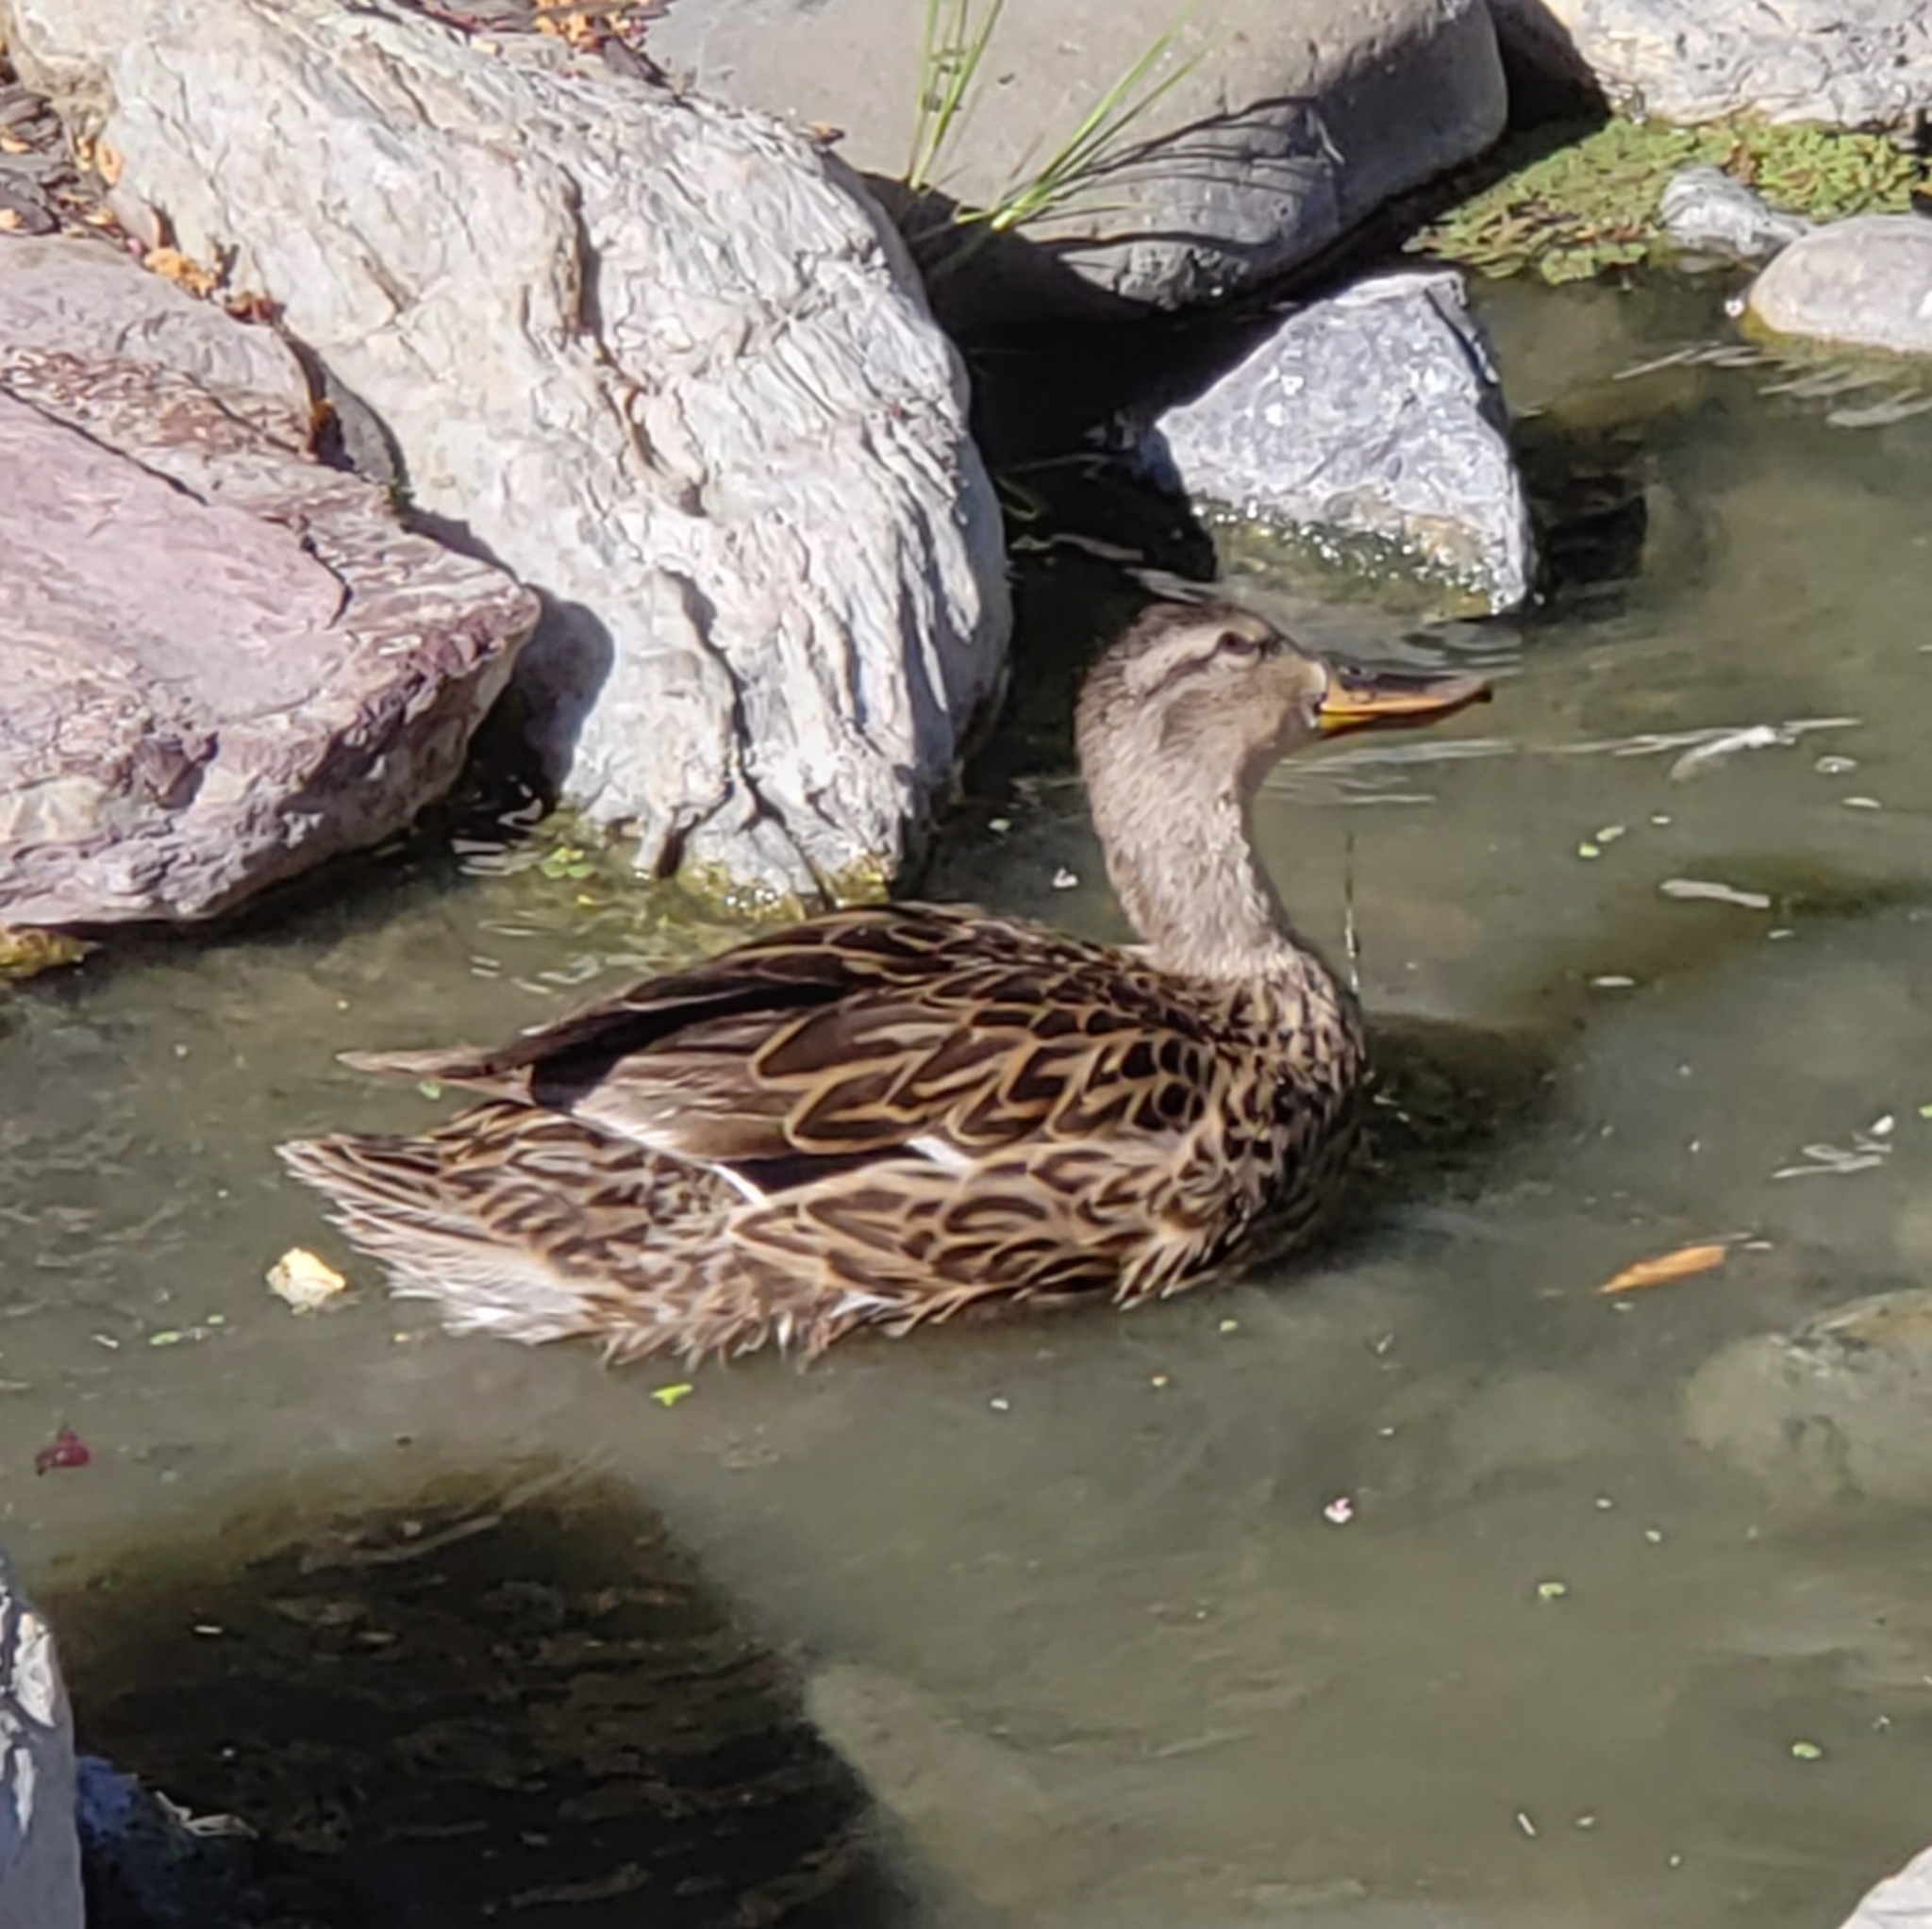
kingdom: Animalia
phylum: Chordata
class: Aves
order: Anseriformes
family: Anatidae
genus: Anas
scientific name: Anas platyrhynchos
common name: Mallard
